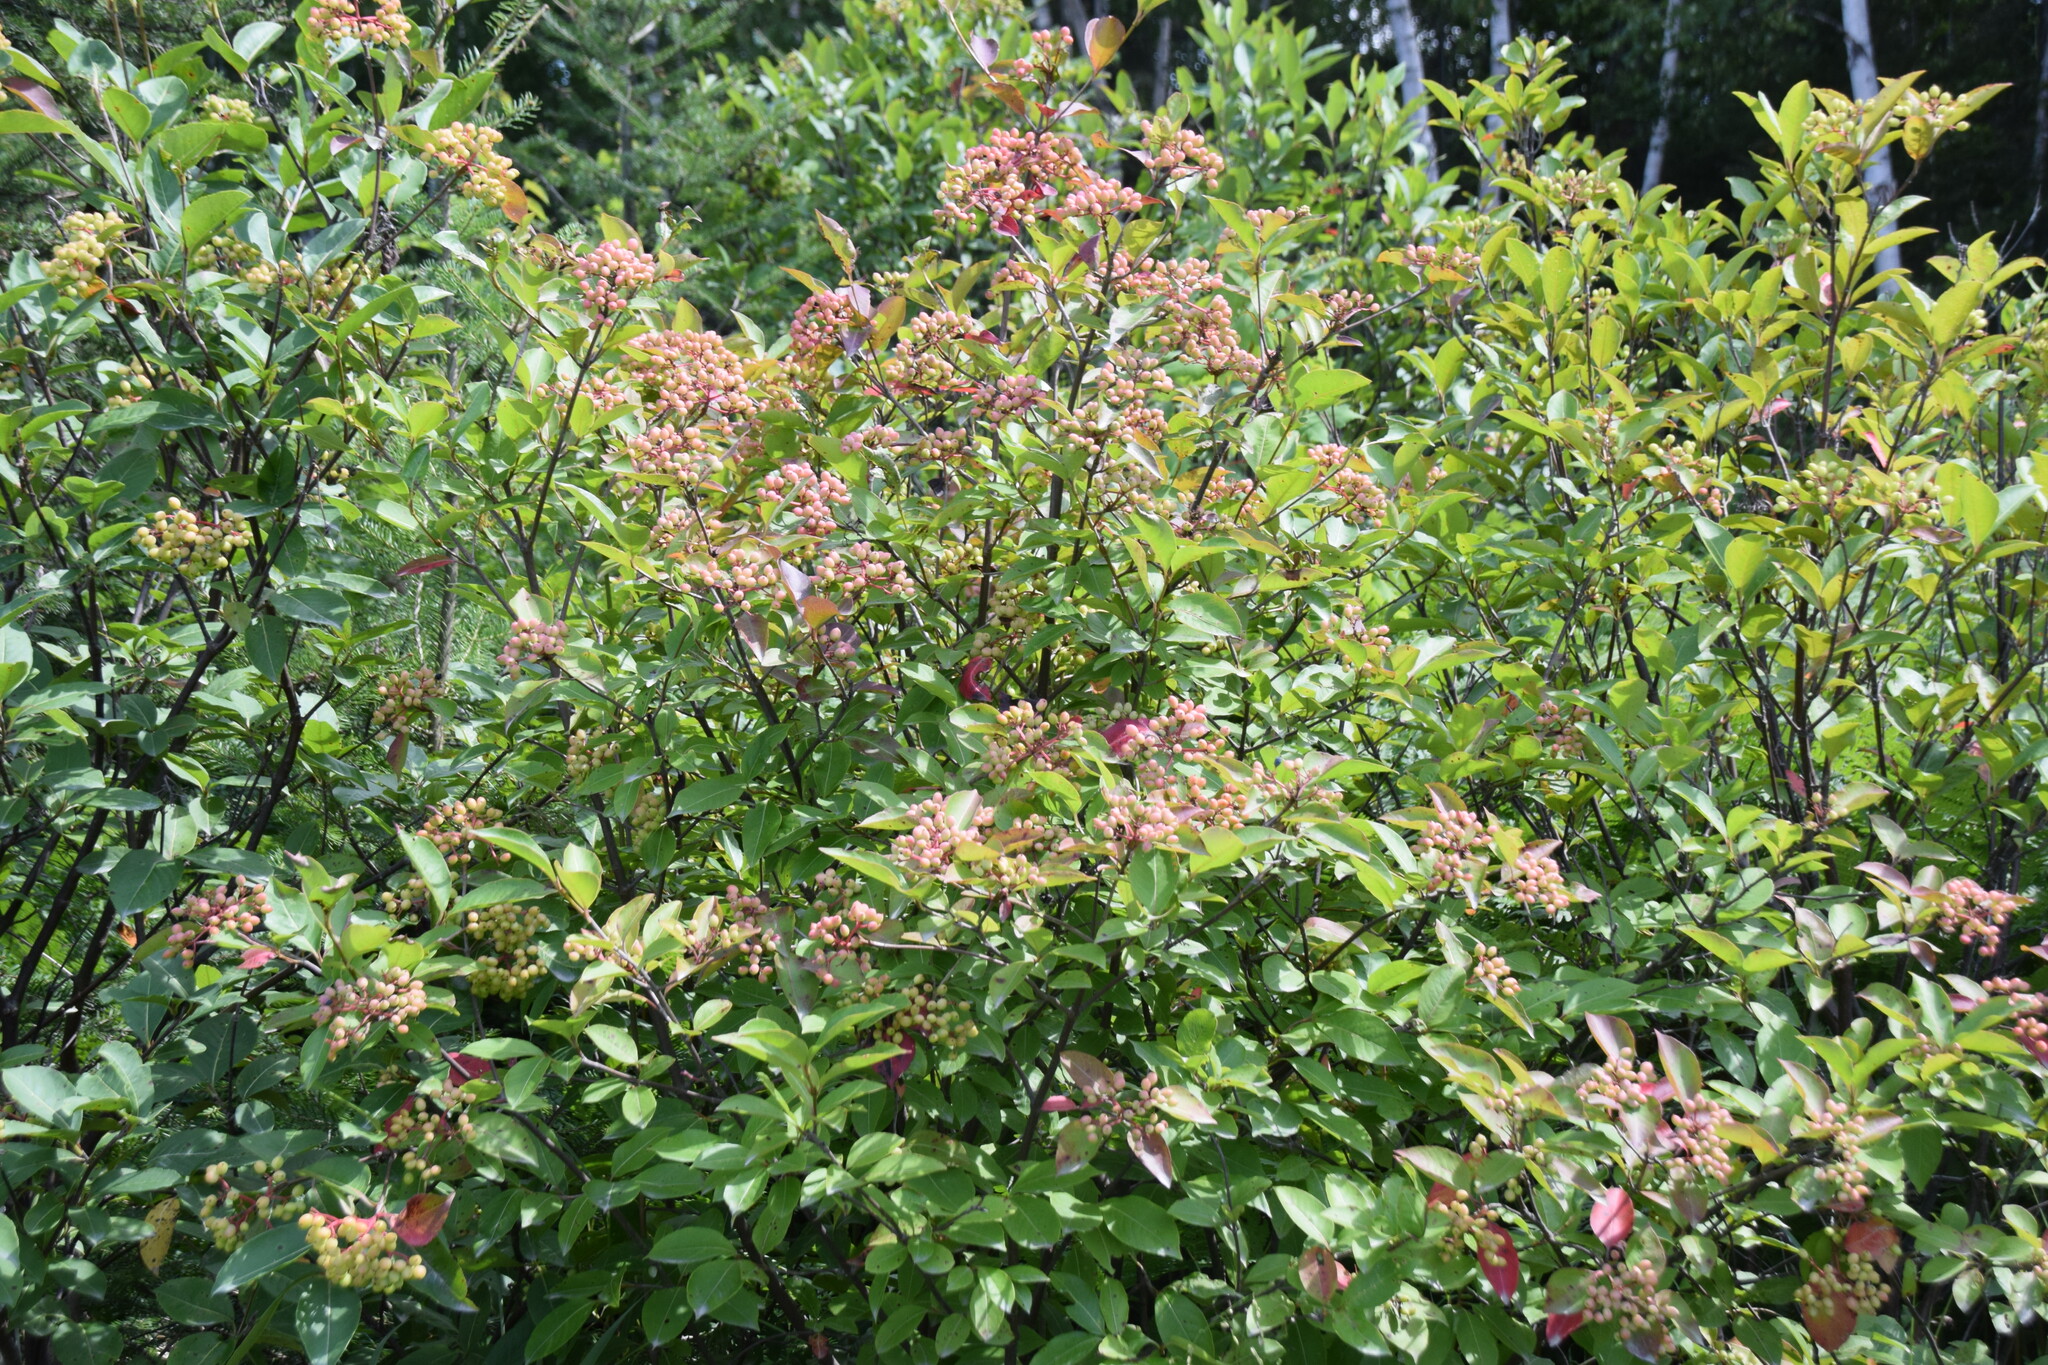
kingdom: Plantae
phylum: Tracheophyta
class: Magnoliopsida
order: Dipsacales
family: Viburnaceae
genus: Viburnum
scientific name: Viburnum cassinoides
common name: Swamp haw
